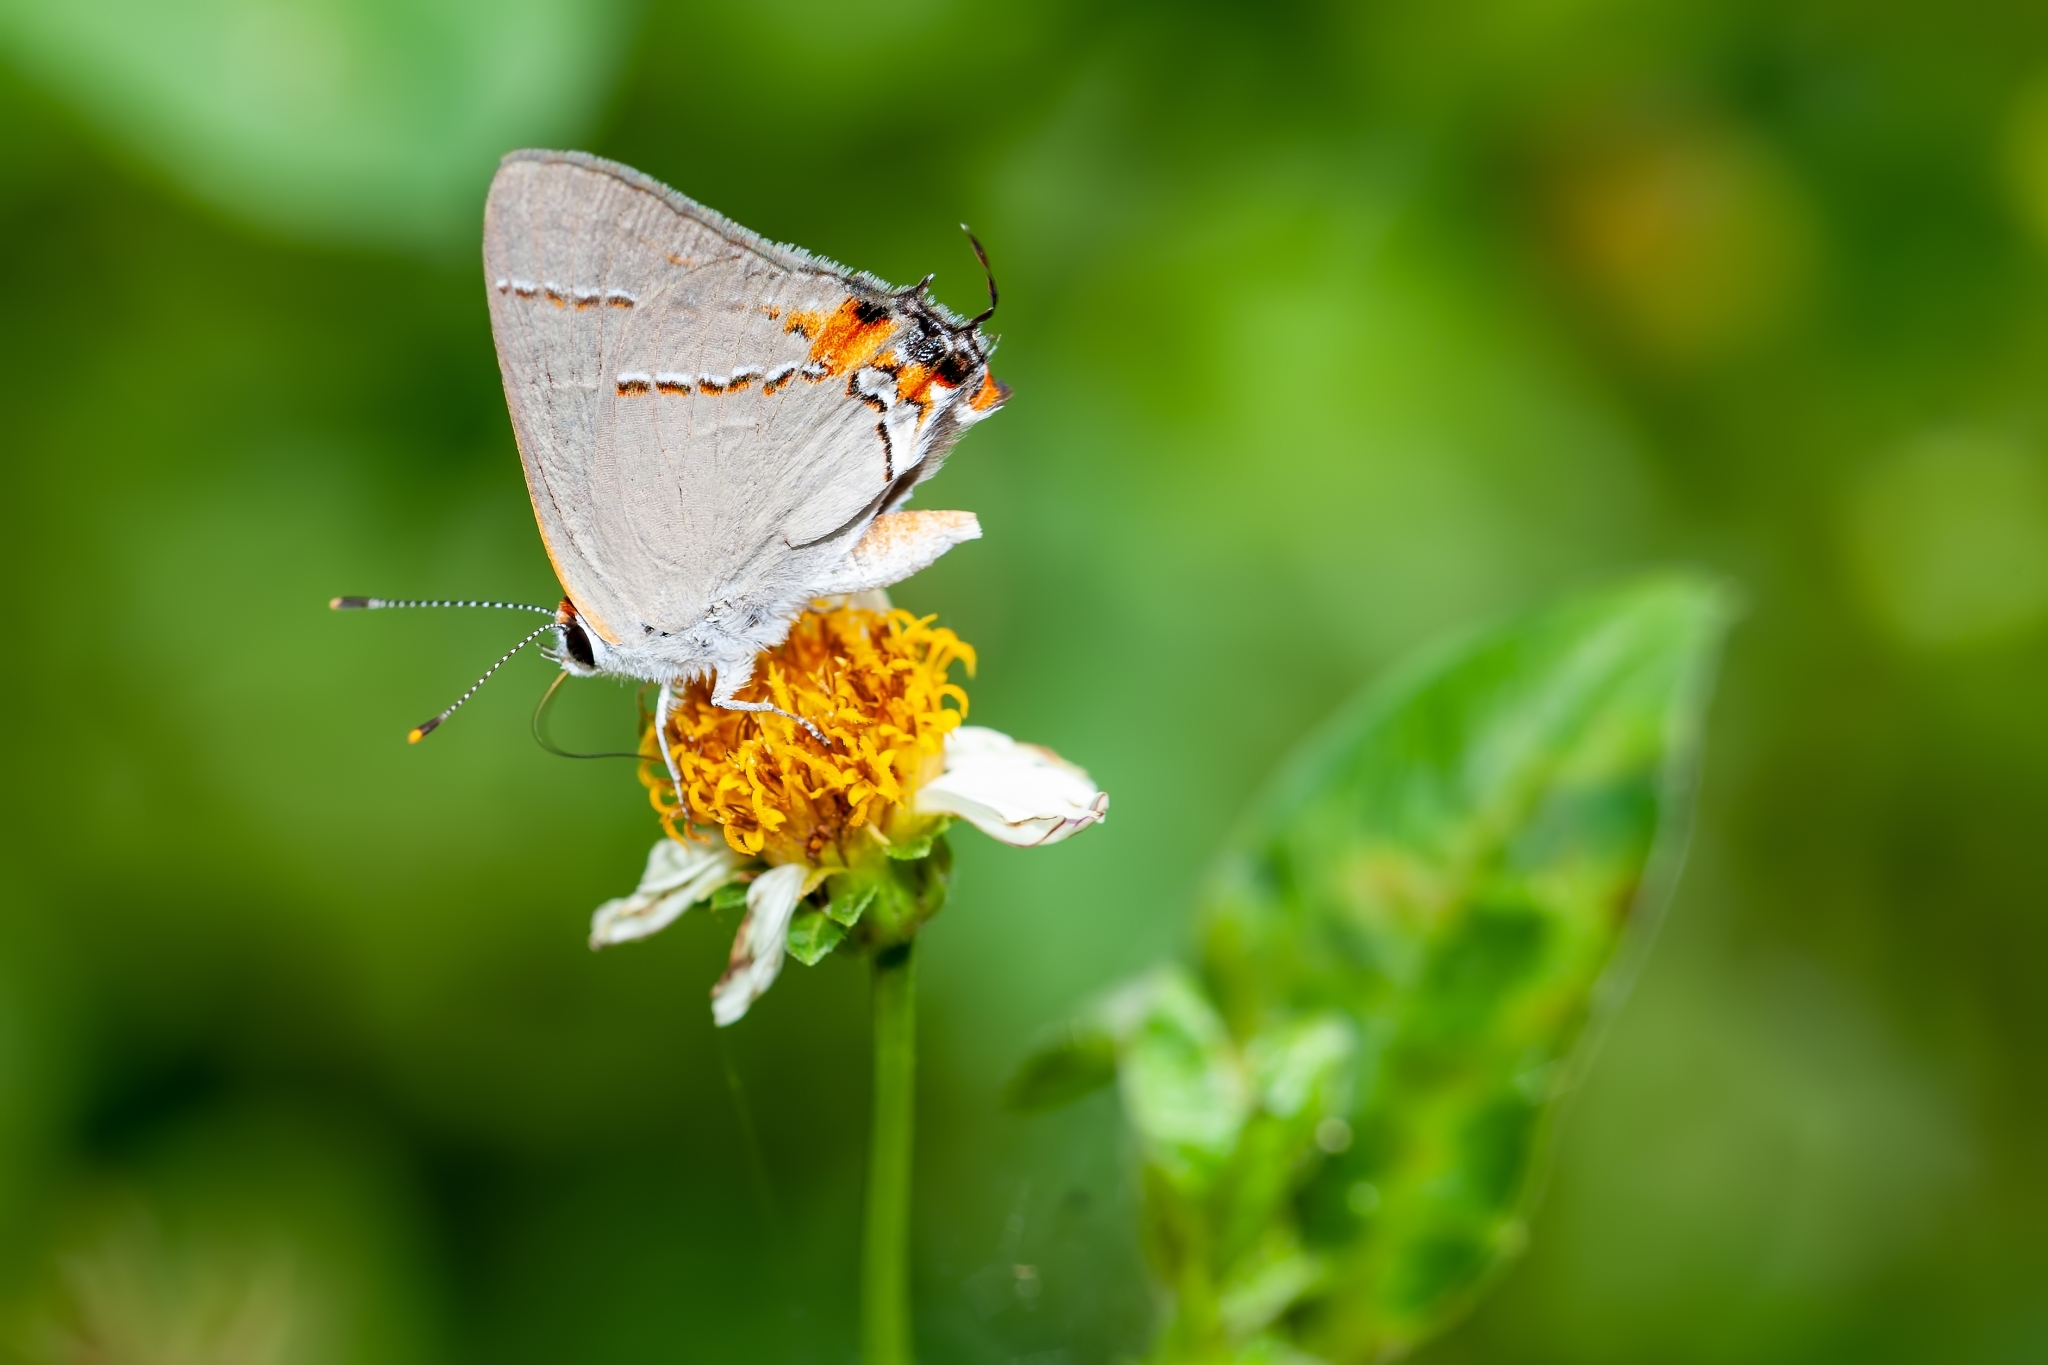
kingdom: Animalia
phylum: Arthropoda
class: Insecta
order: Lepidoptera
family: Lycaenidae
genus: Strymon
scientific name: Strymon melinus
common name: Gray hairstreak
